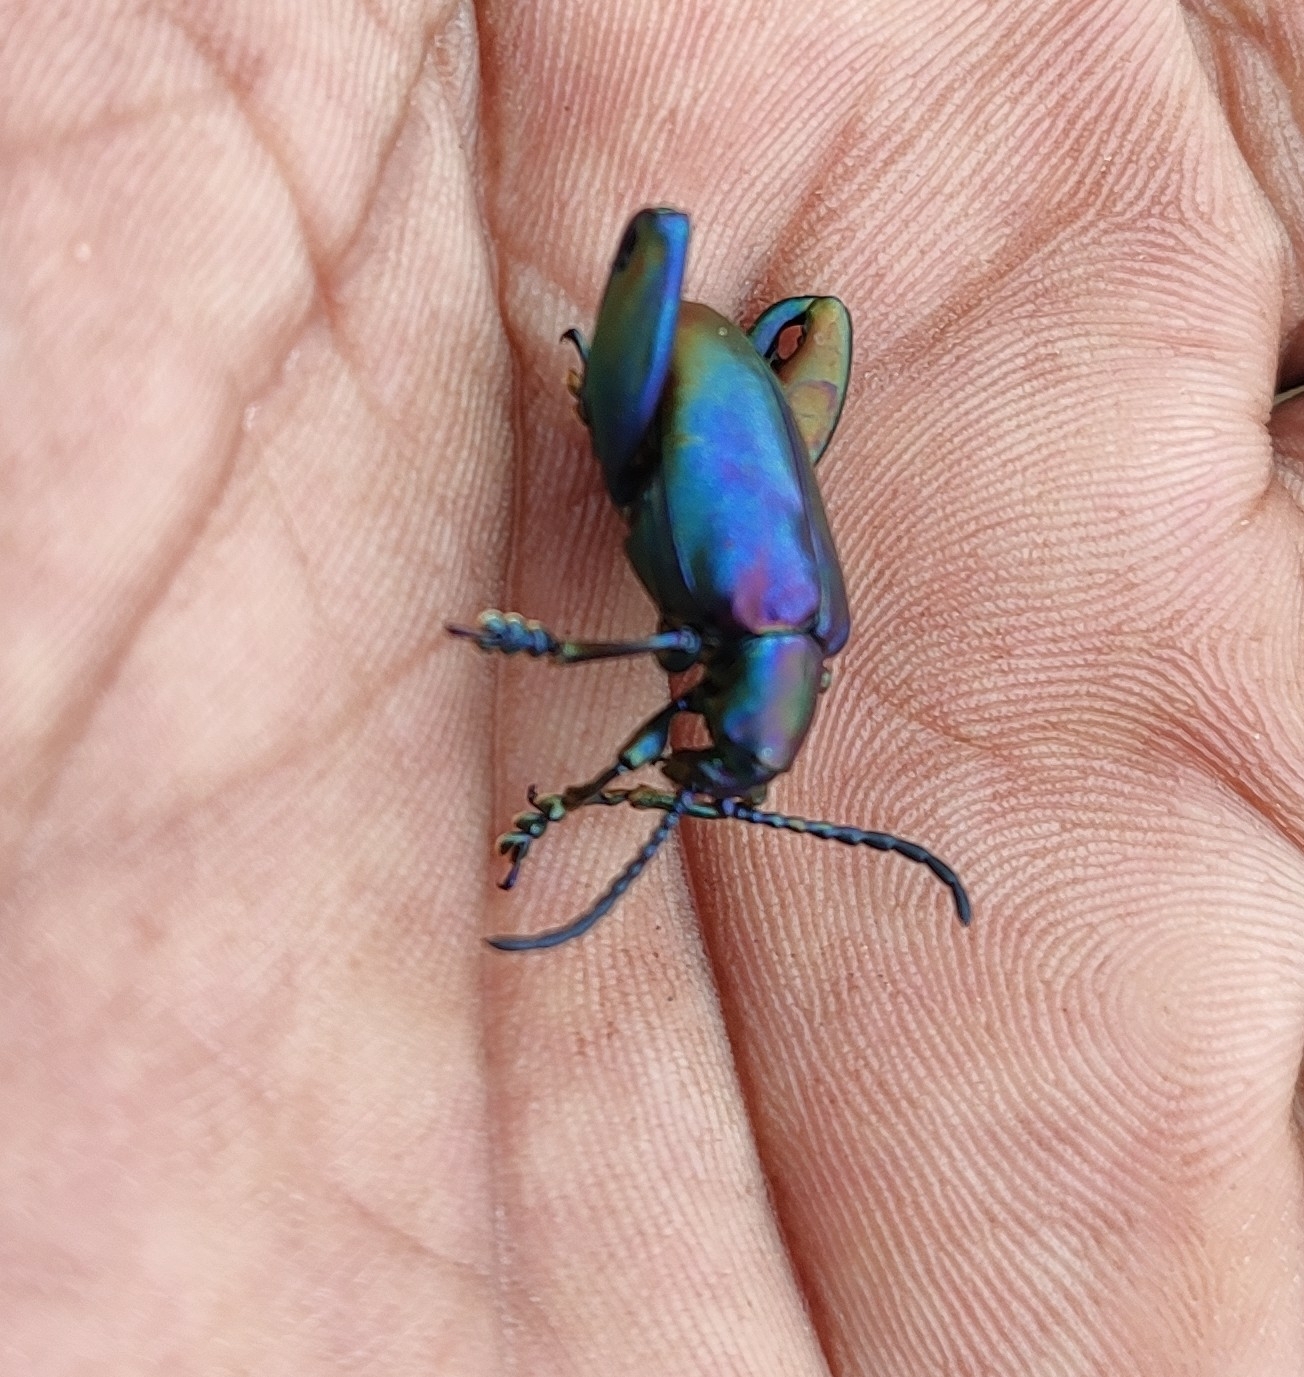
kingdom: Animalia
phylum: Arthropoda
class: Insecta
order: Coleoptera
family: Chrysomelidae
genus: Sagra
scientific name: Sagra femorata
